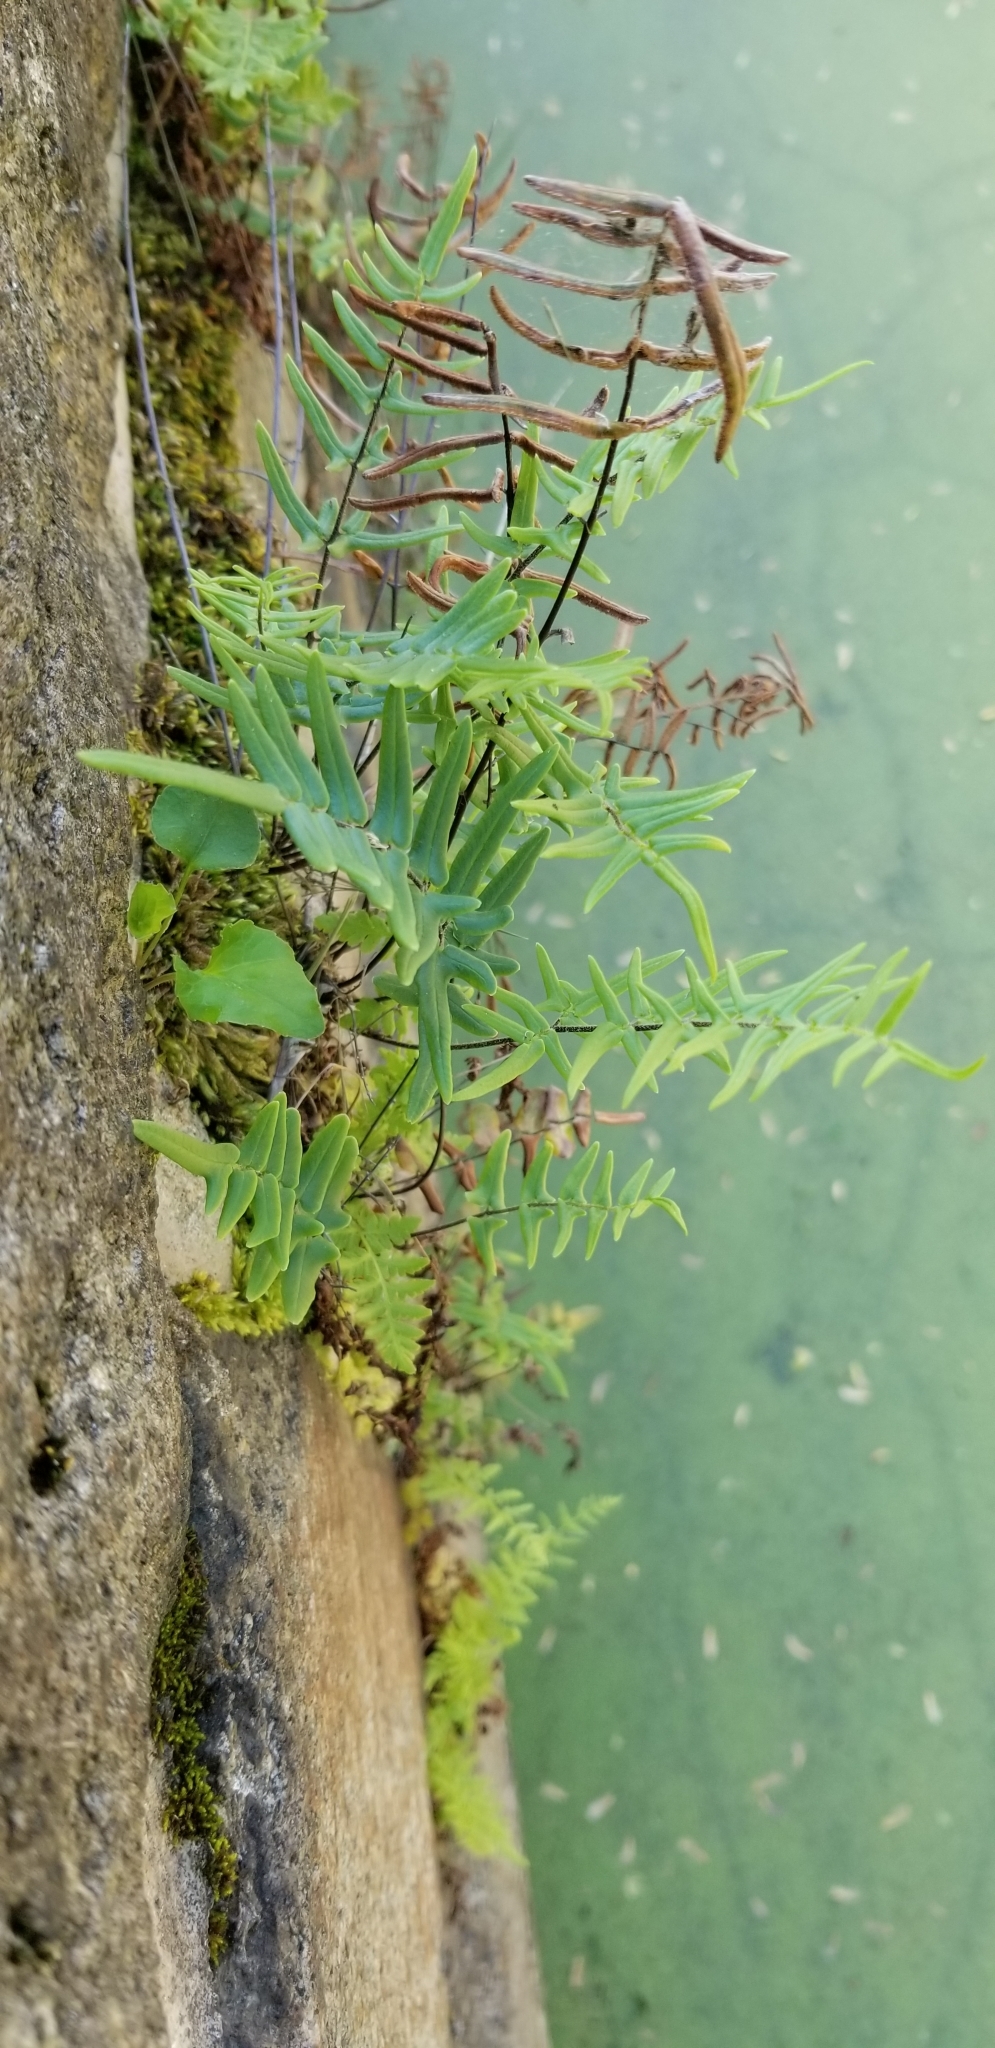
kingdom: Plantae
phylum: Tracheophyta
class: Polypodiopsida
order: Polypodiales
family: Pteridaceae
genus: Pellaea
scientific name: Pellaea atropurpurea
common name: Hairy cliffbrake
